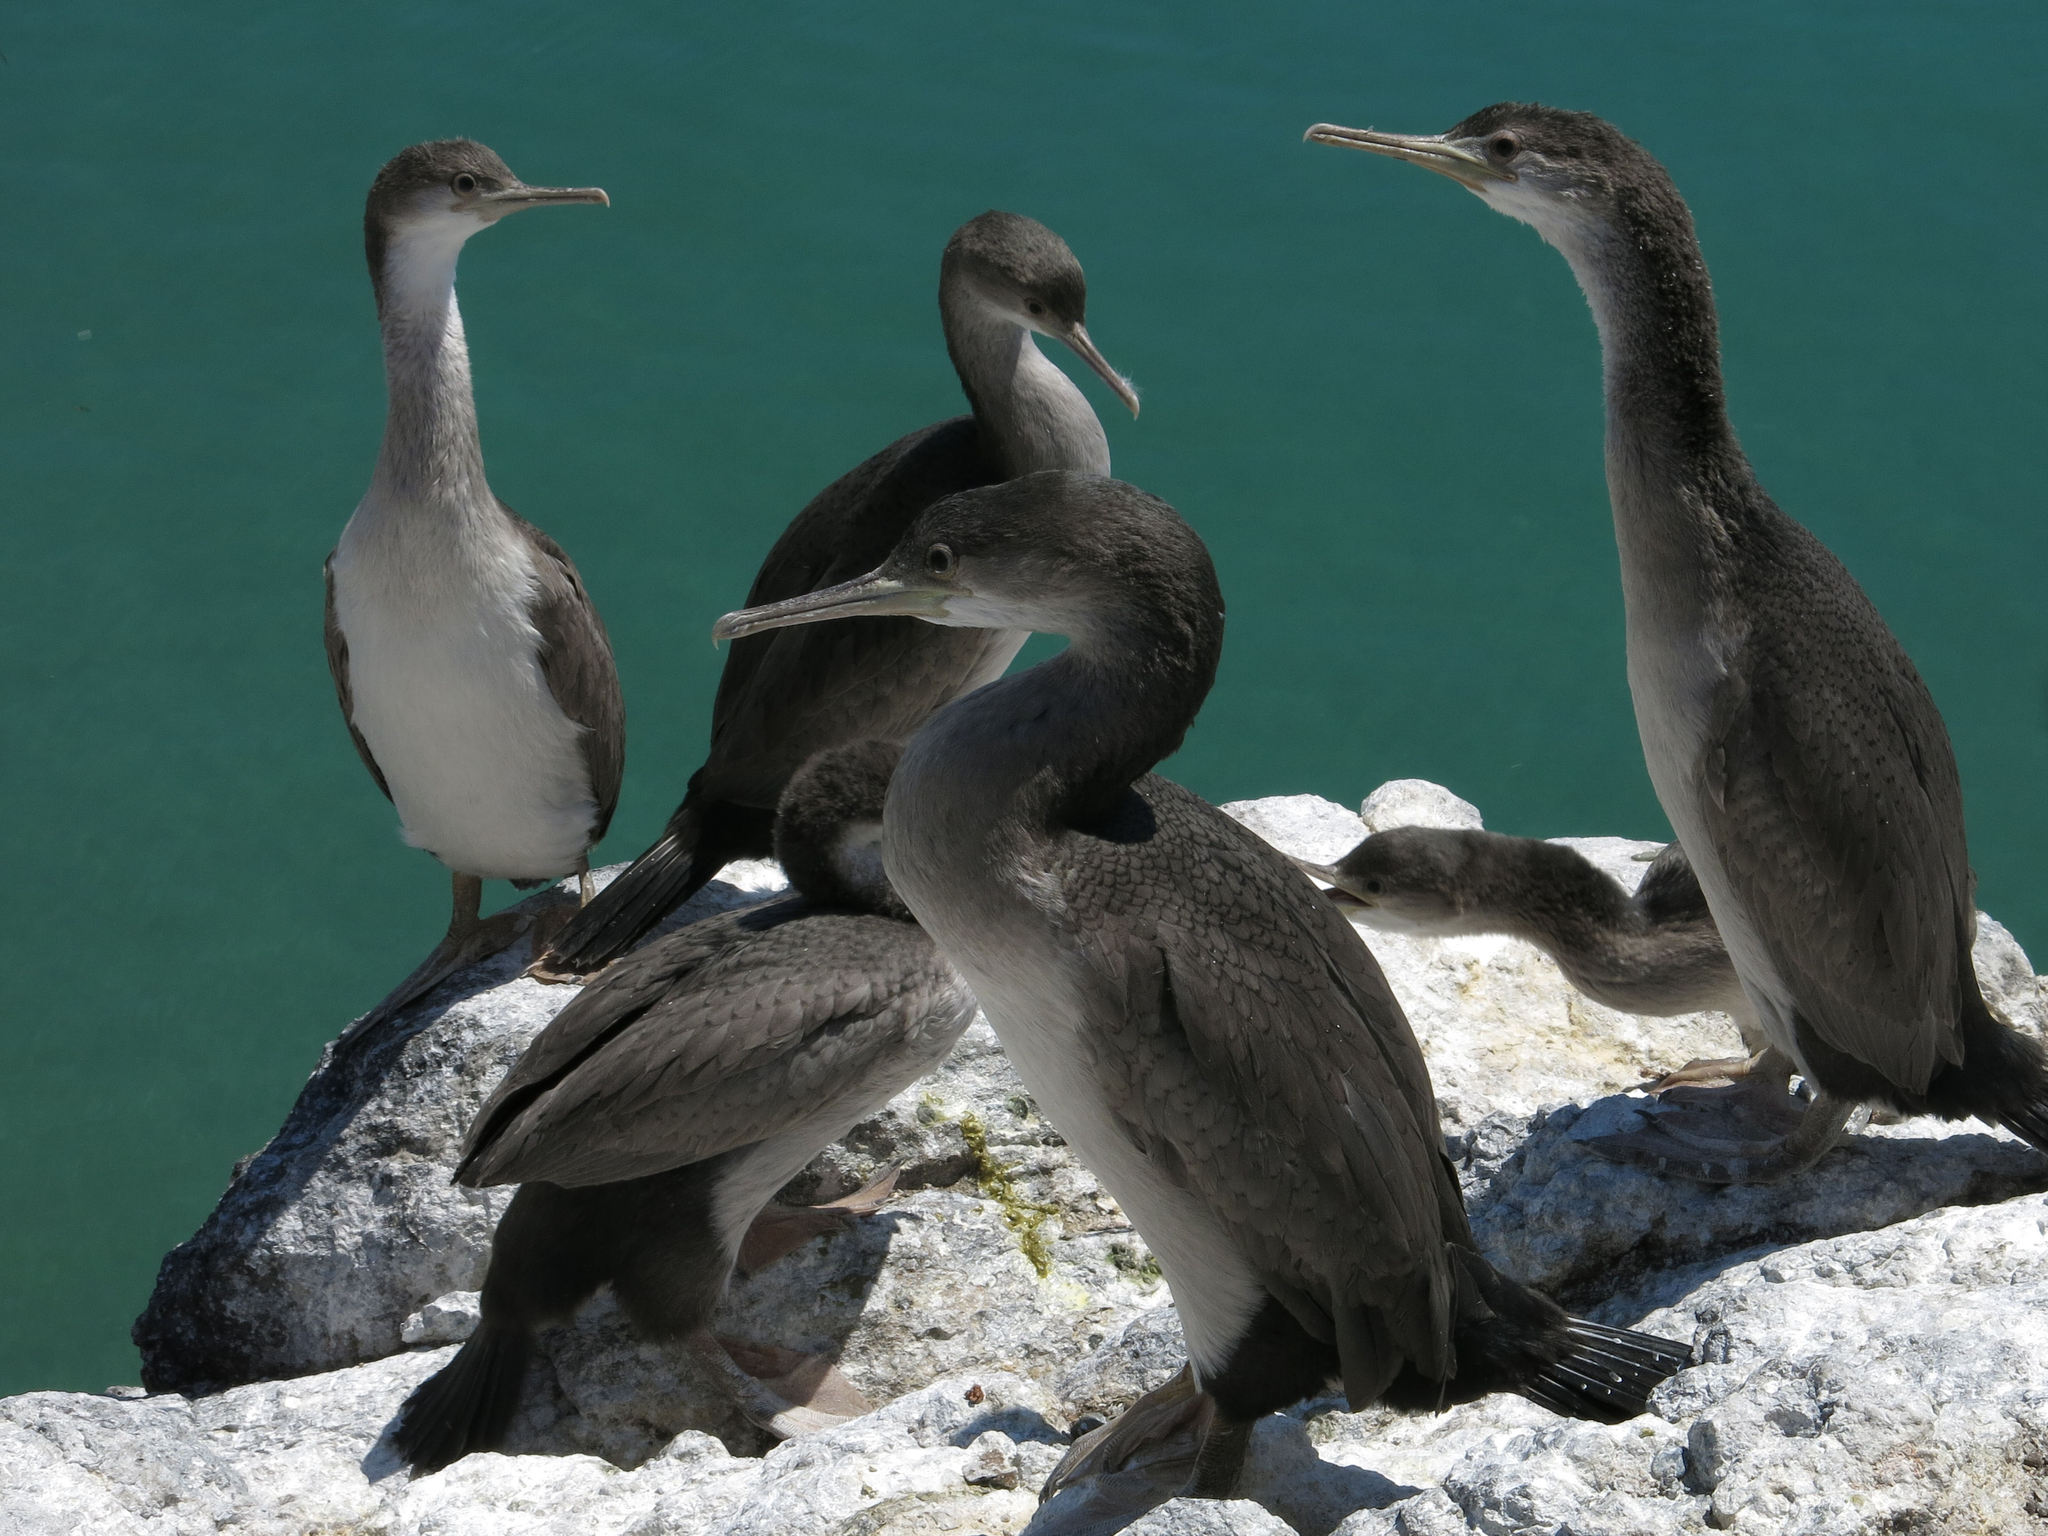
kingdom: Animalia
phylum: Chordata
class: Aves
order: Suliformes
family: Phalacrocoracidae
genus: Phalacrocorax
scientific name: Phalacrocorax punctatus
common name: Spotted shag
